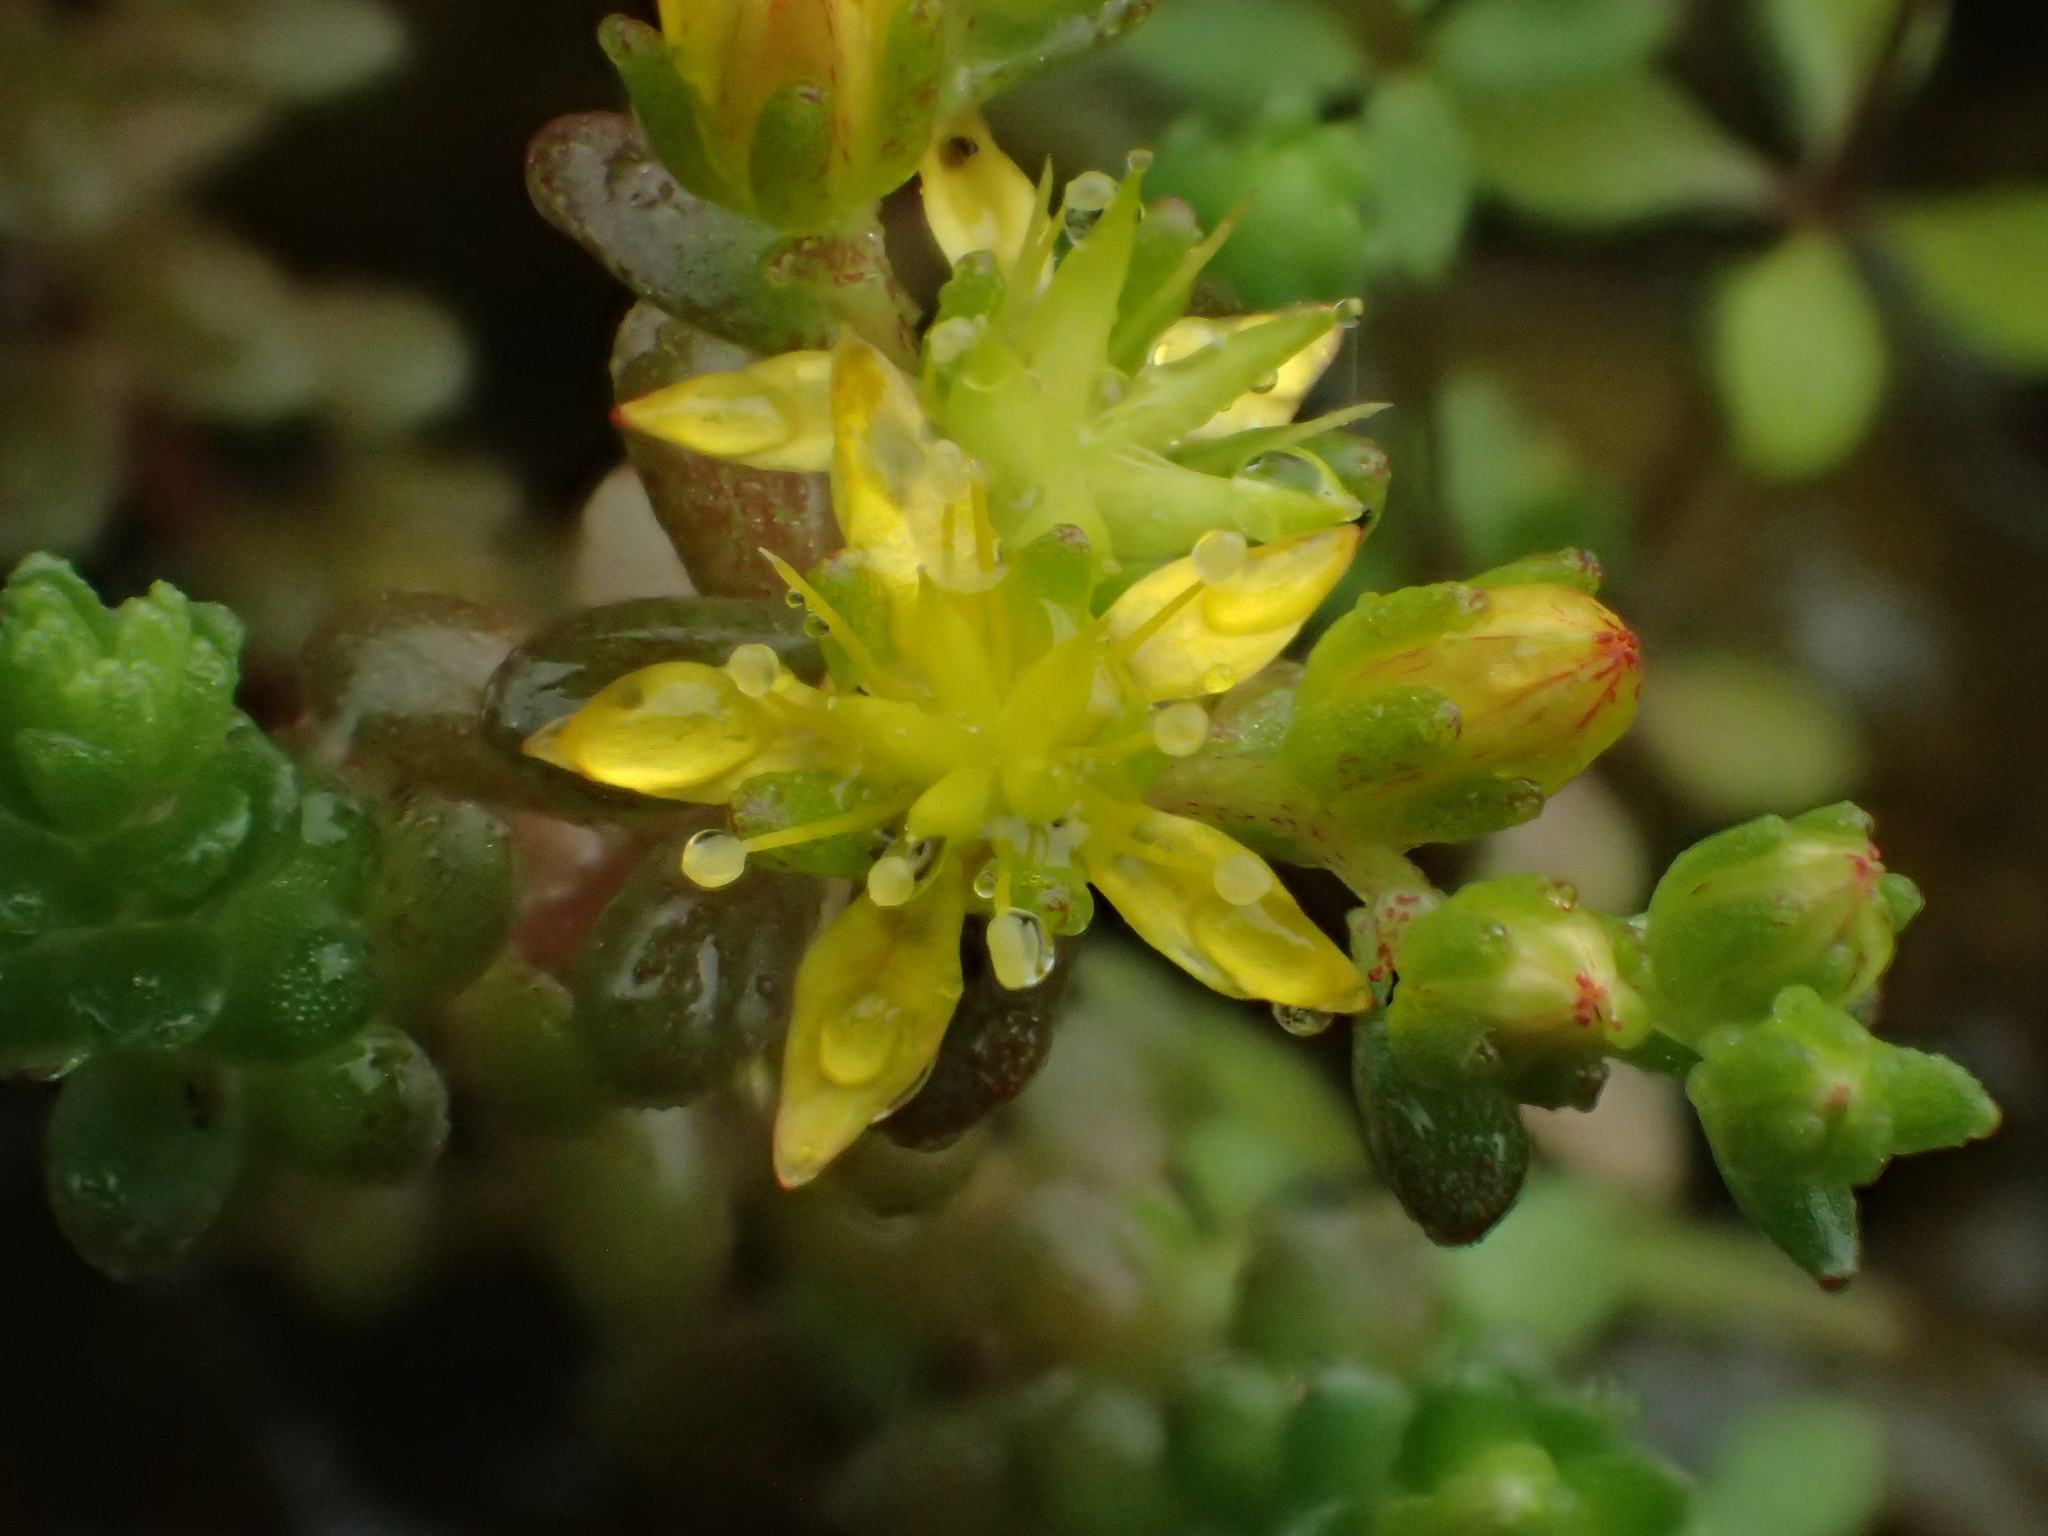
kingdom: Plantae
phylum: Tracheophyta
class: Magnoliopsida
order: Saxifragales
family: Crassulaceae
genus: Sedum
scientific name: Sedum japonicum
